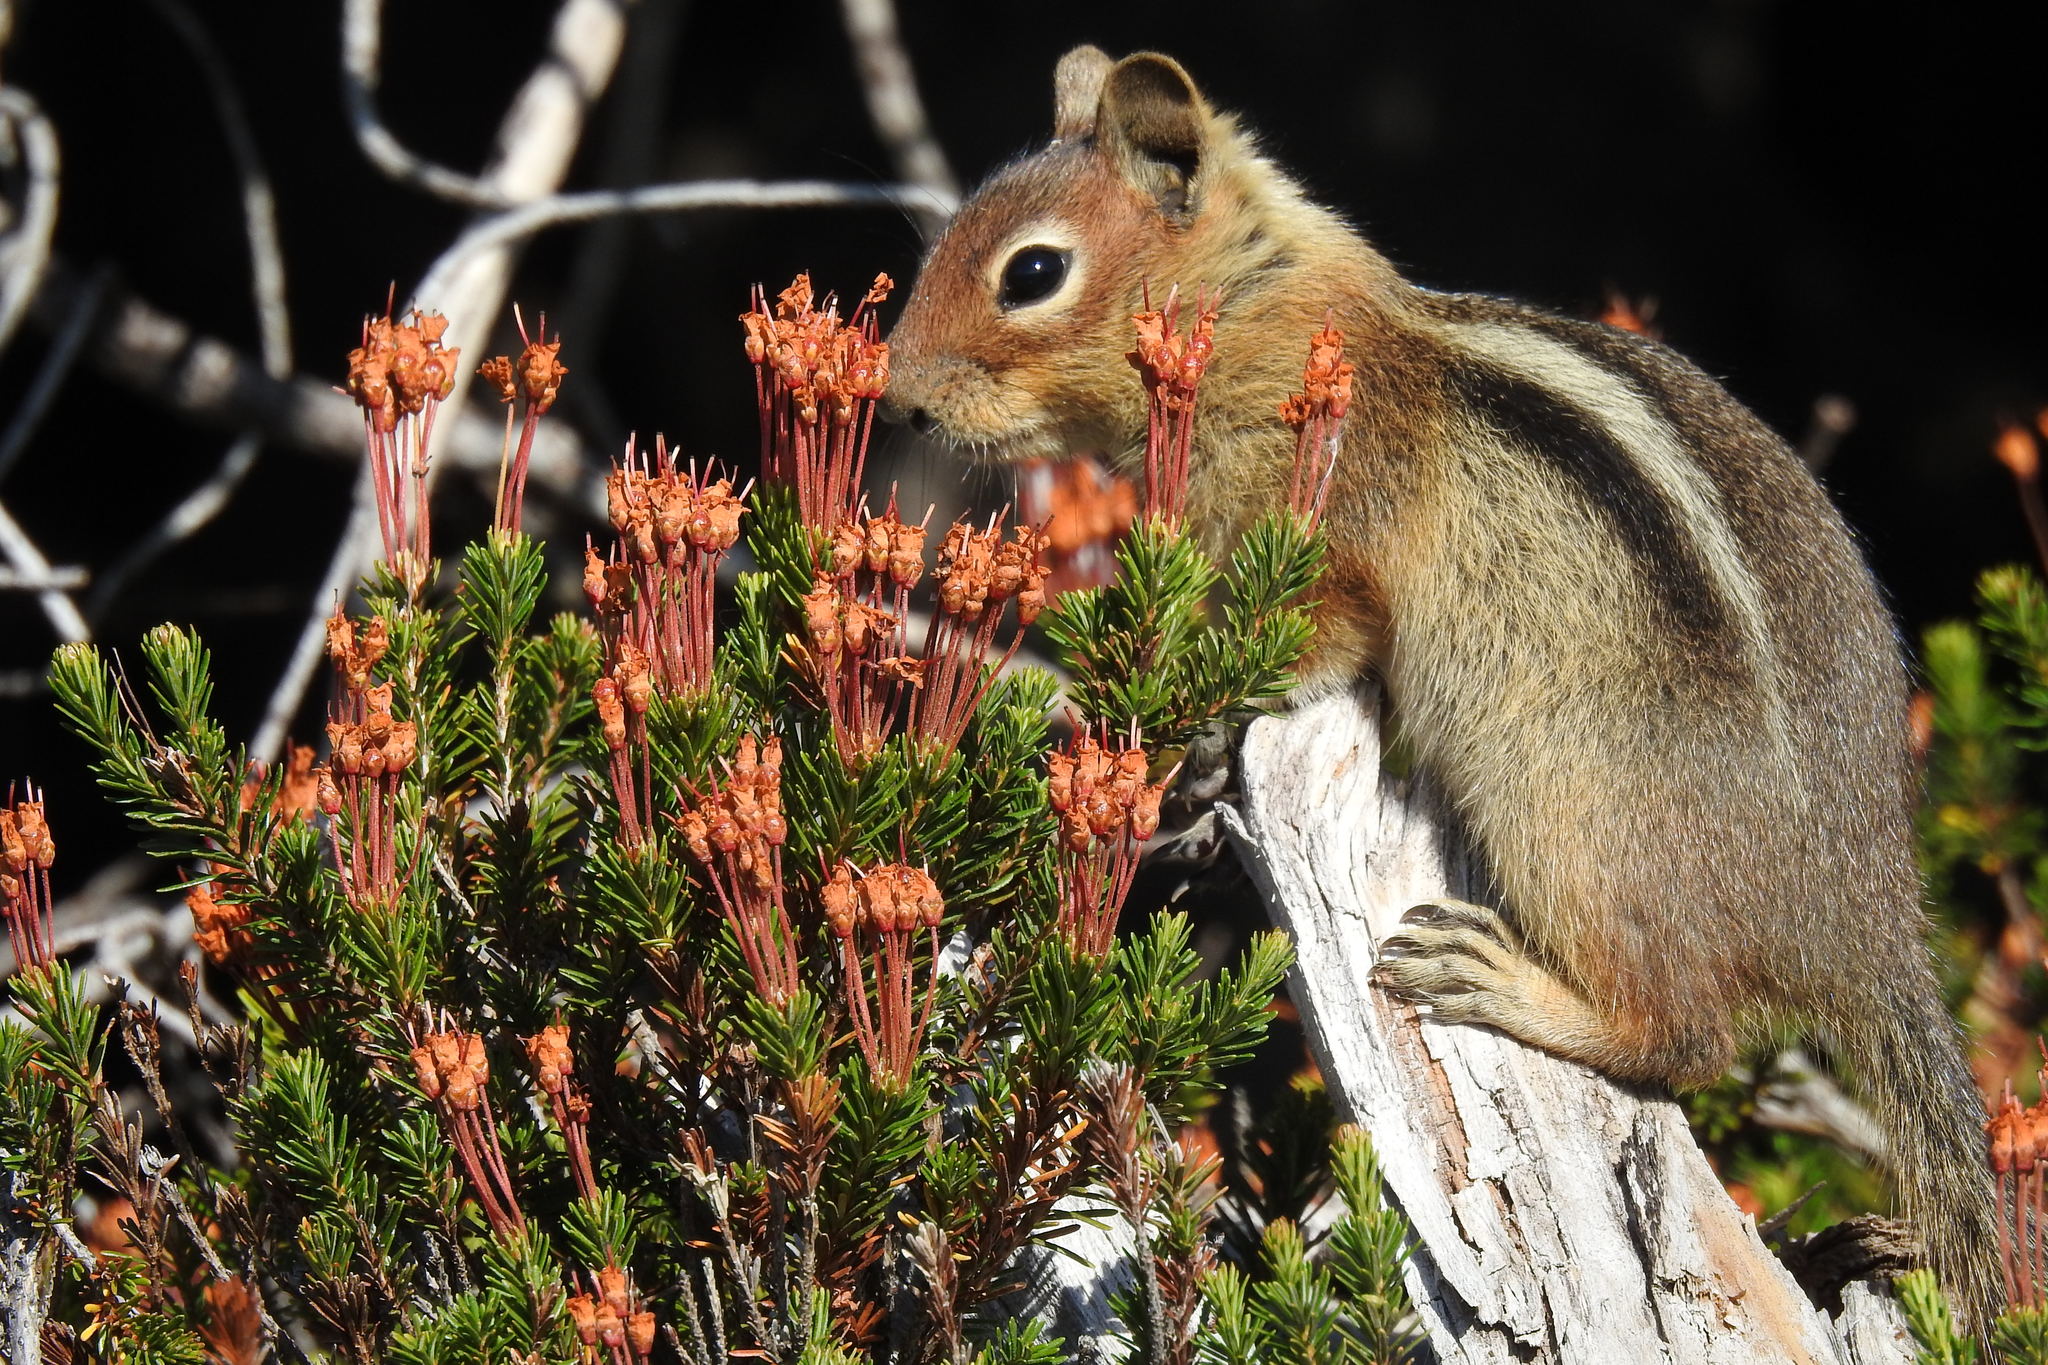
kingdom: Animalia
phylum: Chordata
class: Mammalia
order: Rodentia
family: Sciuridae
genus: Callospermophilus
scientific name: Callospermophilus saturatus
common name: Cascade golden-mantled ground squirrel
